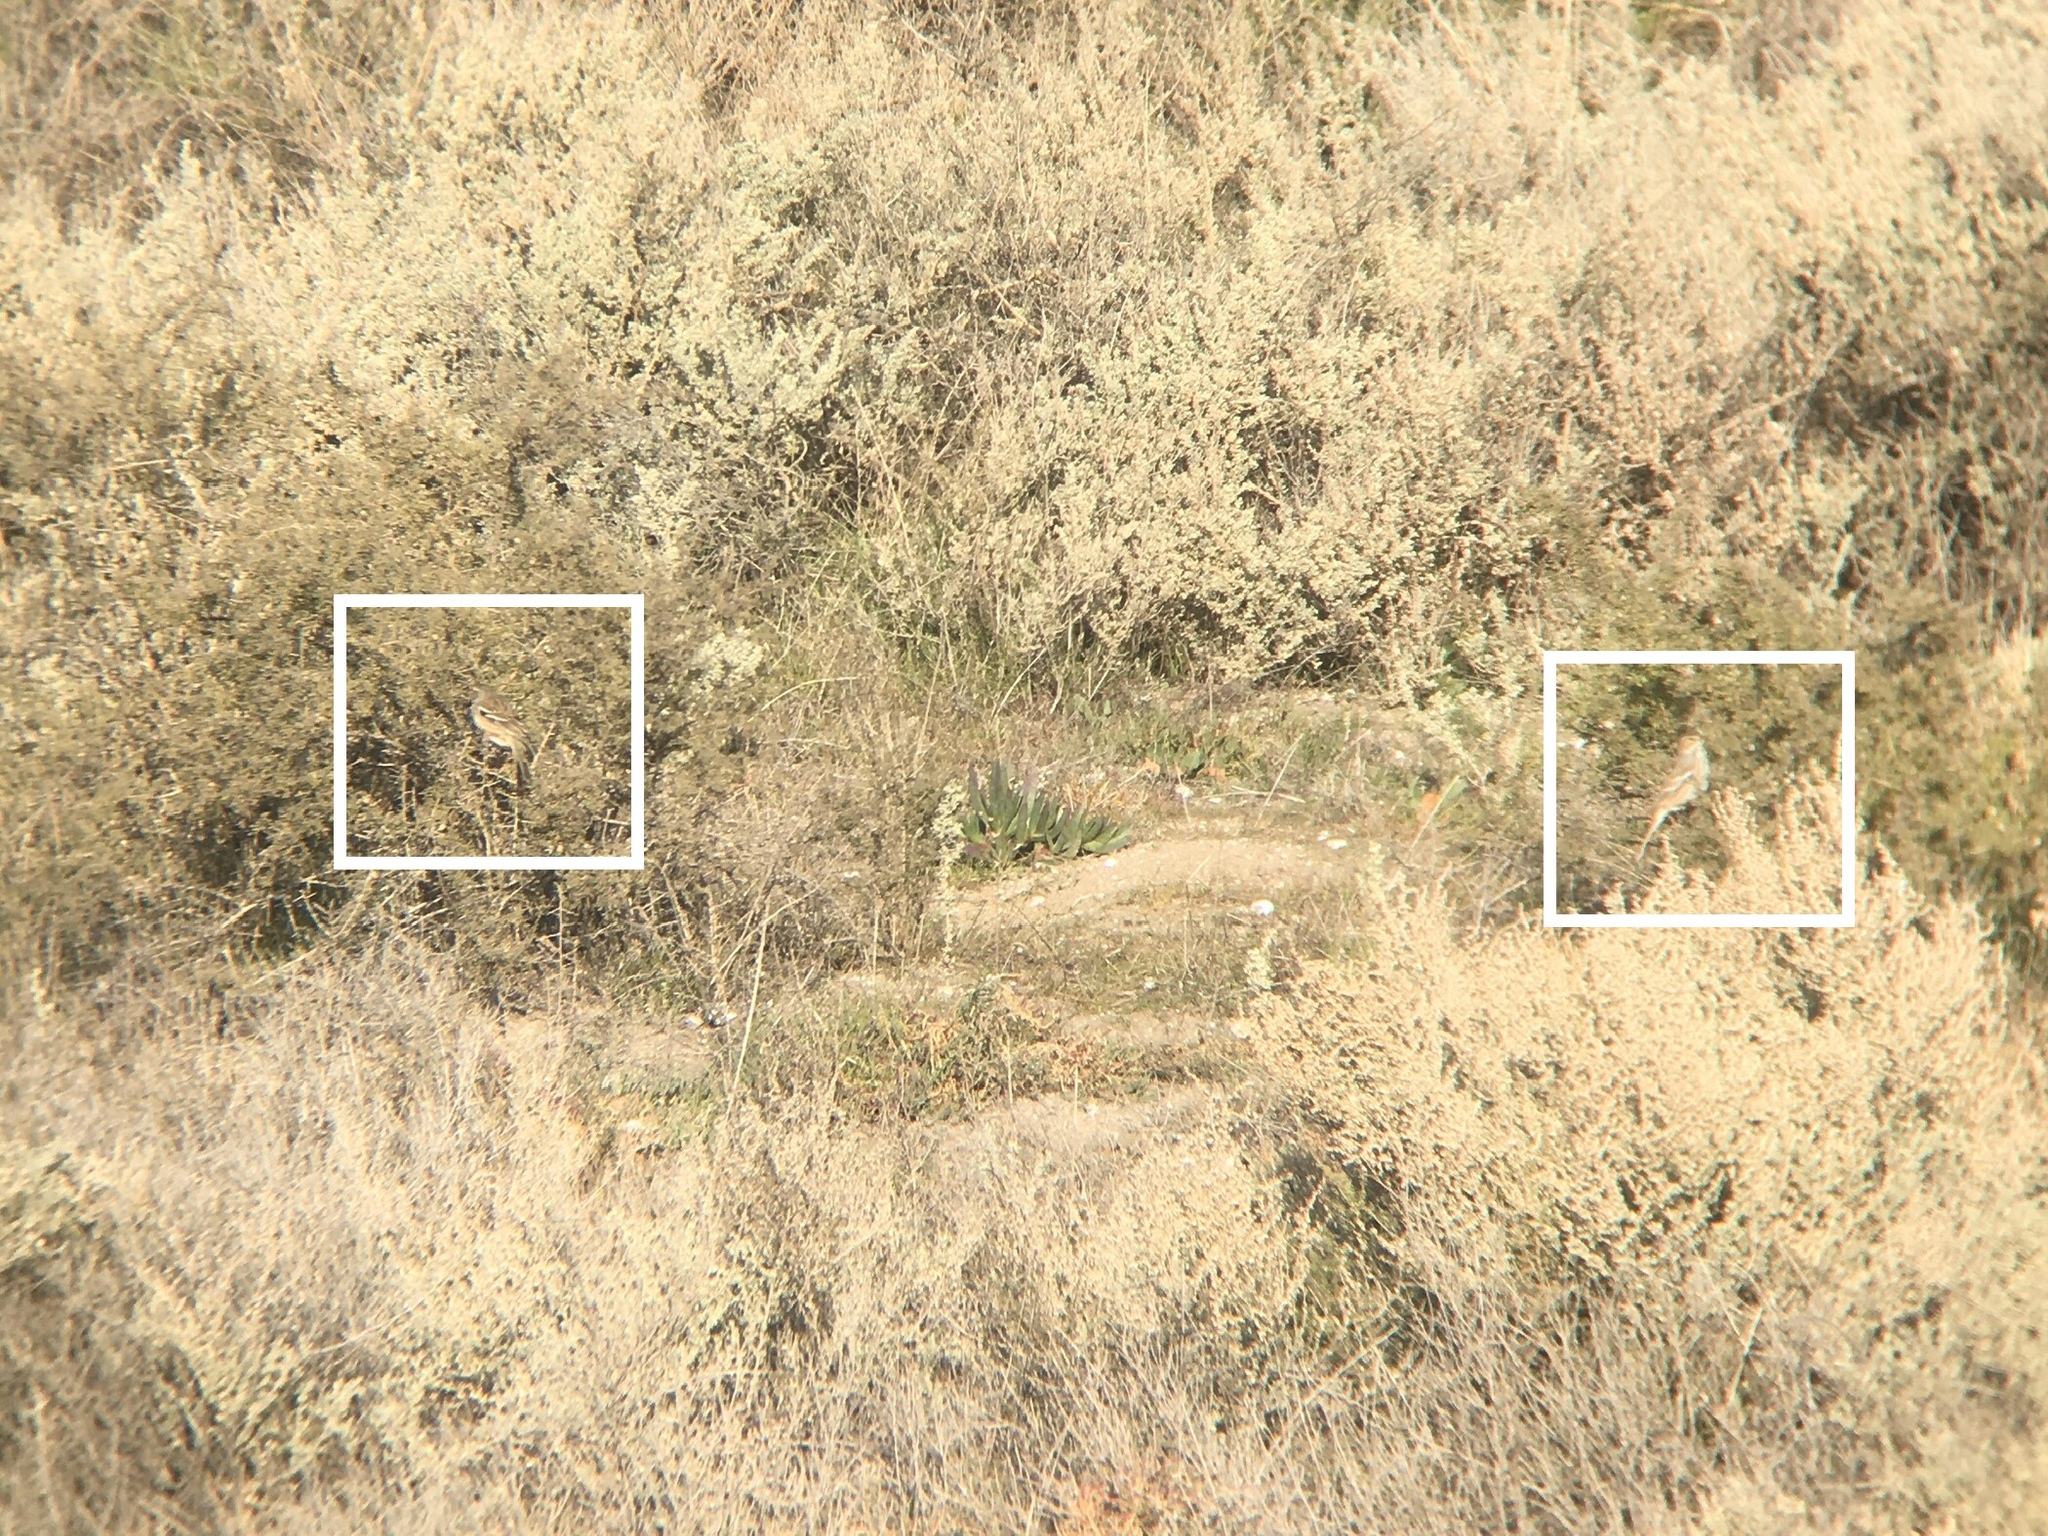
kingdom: Animalia
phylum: Chordata
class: Aves
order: Passeriformes
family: Thraupidae
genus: Rhopospina
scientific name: Rhopospina fruticeti
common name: Mourning sierra finch
